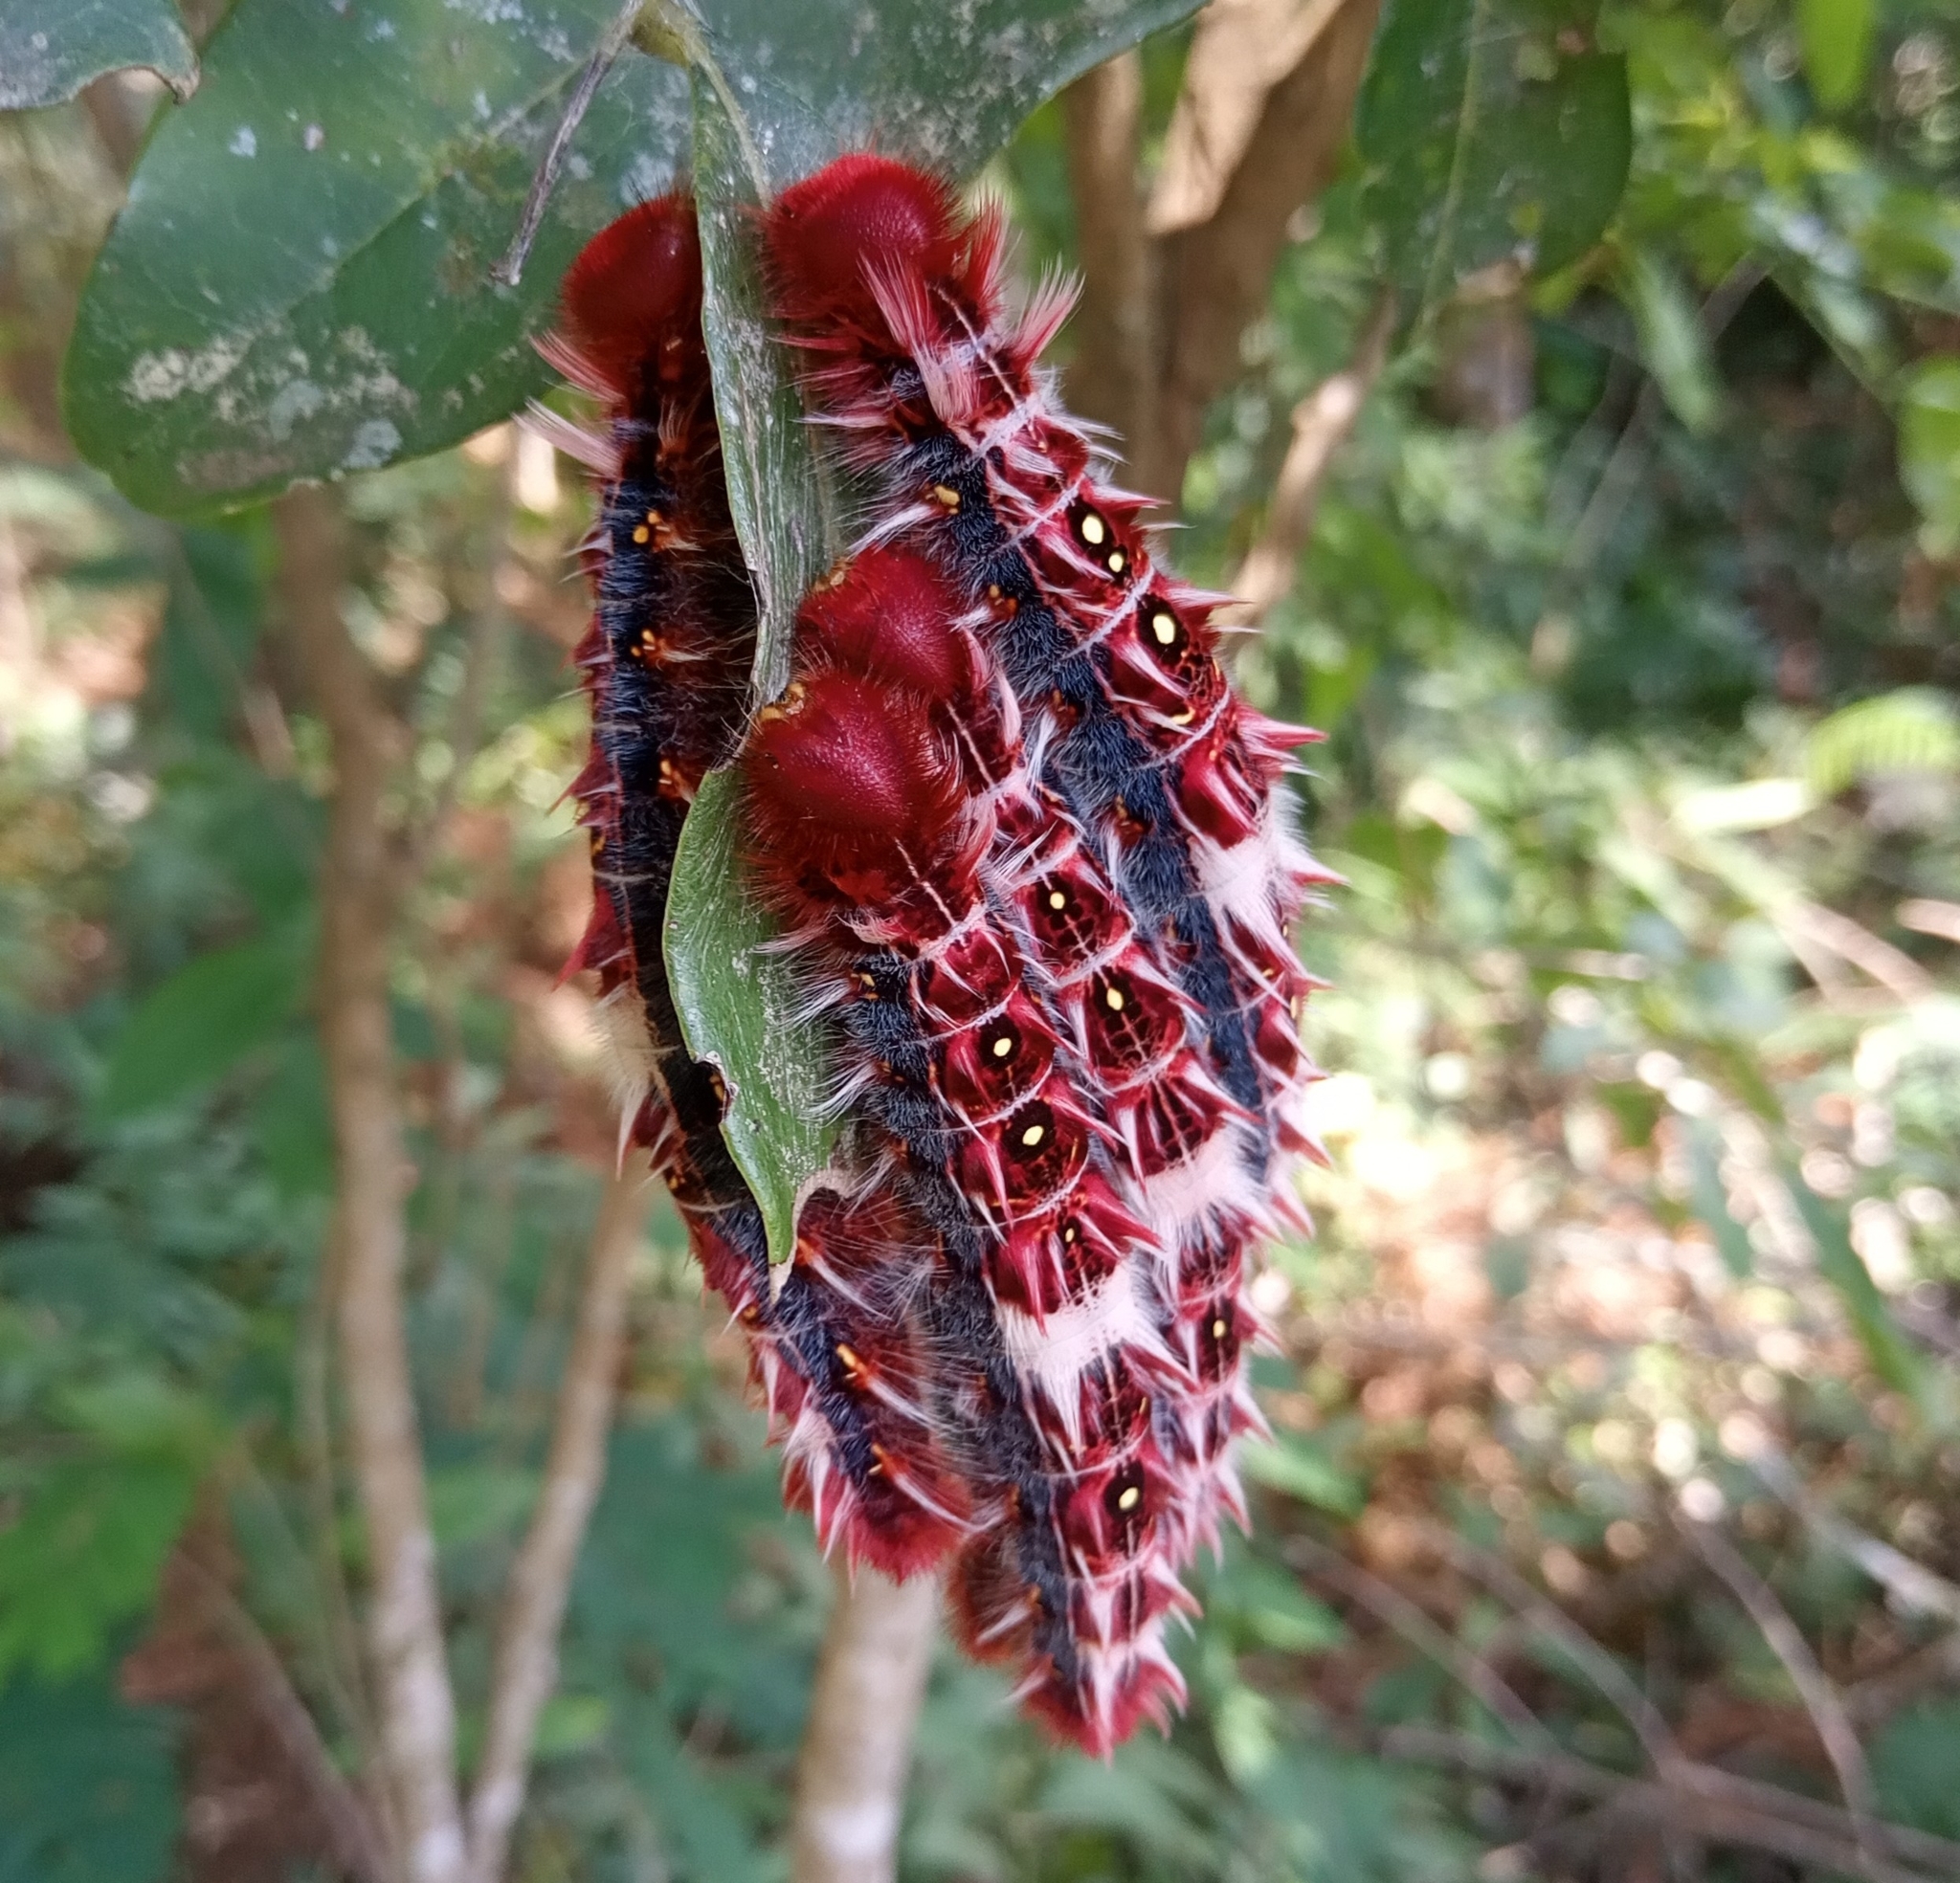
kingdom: Animalia
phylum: Arthropoda
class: Insecta
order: Lepidoptera
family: Nymphalidae
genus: Morpho
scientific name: Morpho epistrophus
